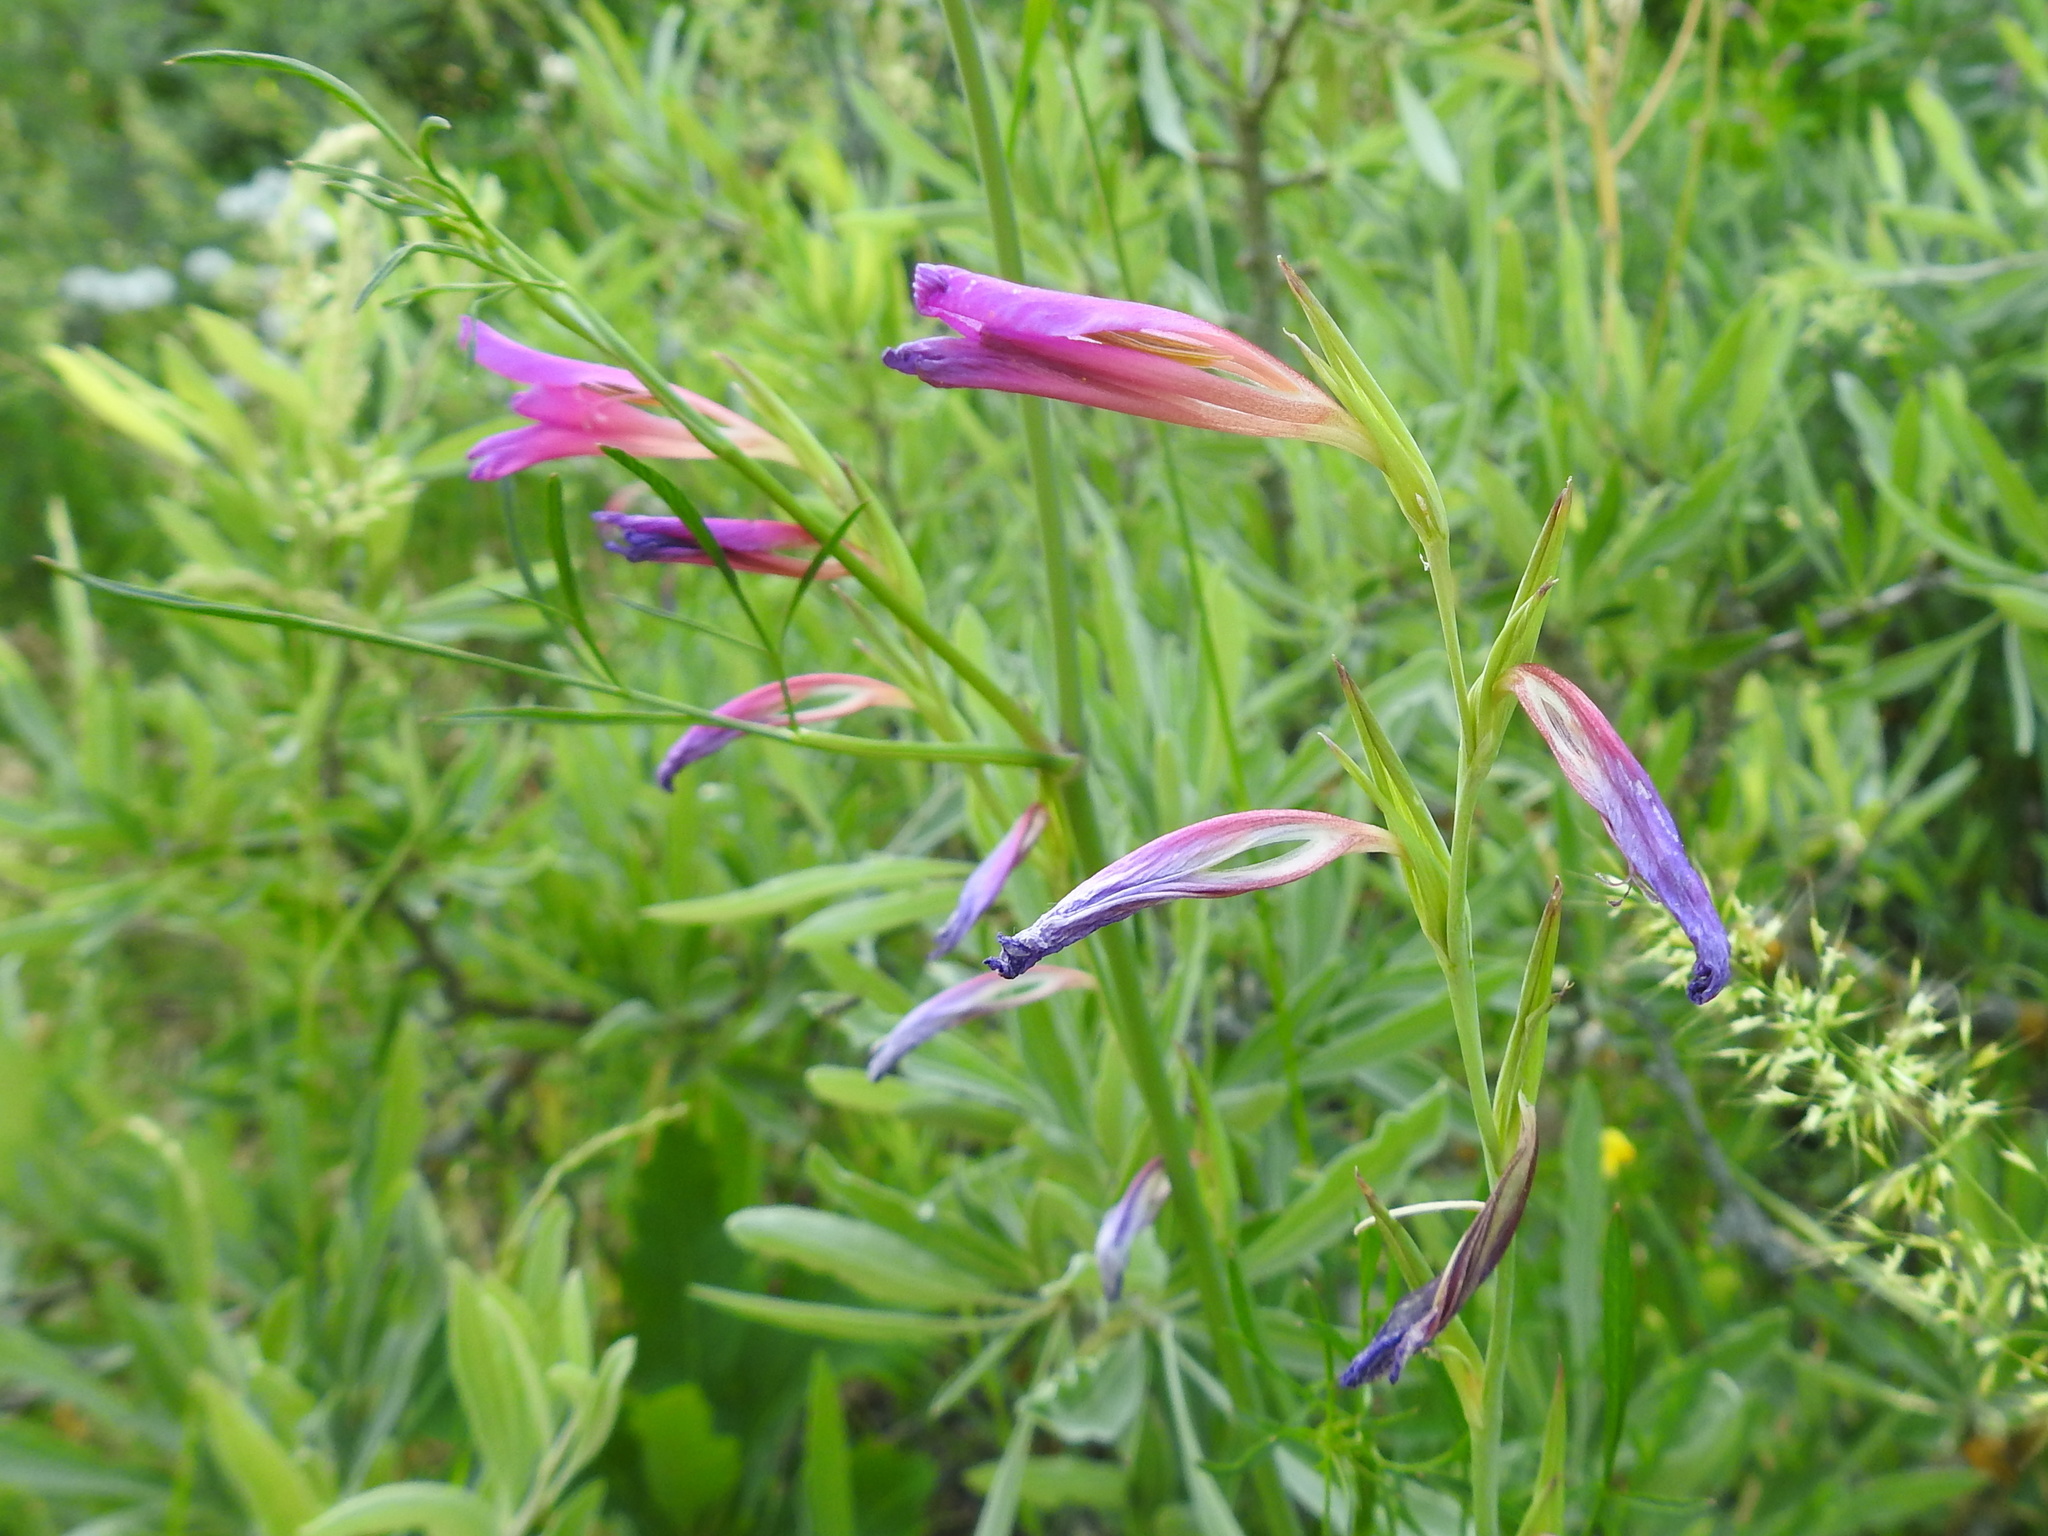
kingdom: Plantae
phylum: Tracheophyta
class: Liliopsida
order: Asparagales
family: Iridaceae
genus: Gladiolus
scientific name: Gladiolus caucasicus
